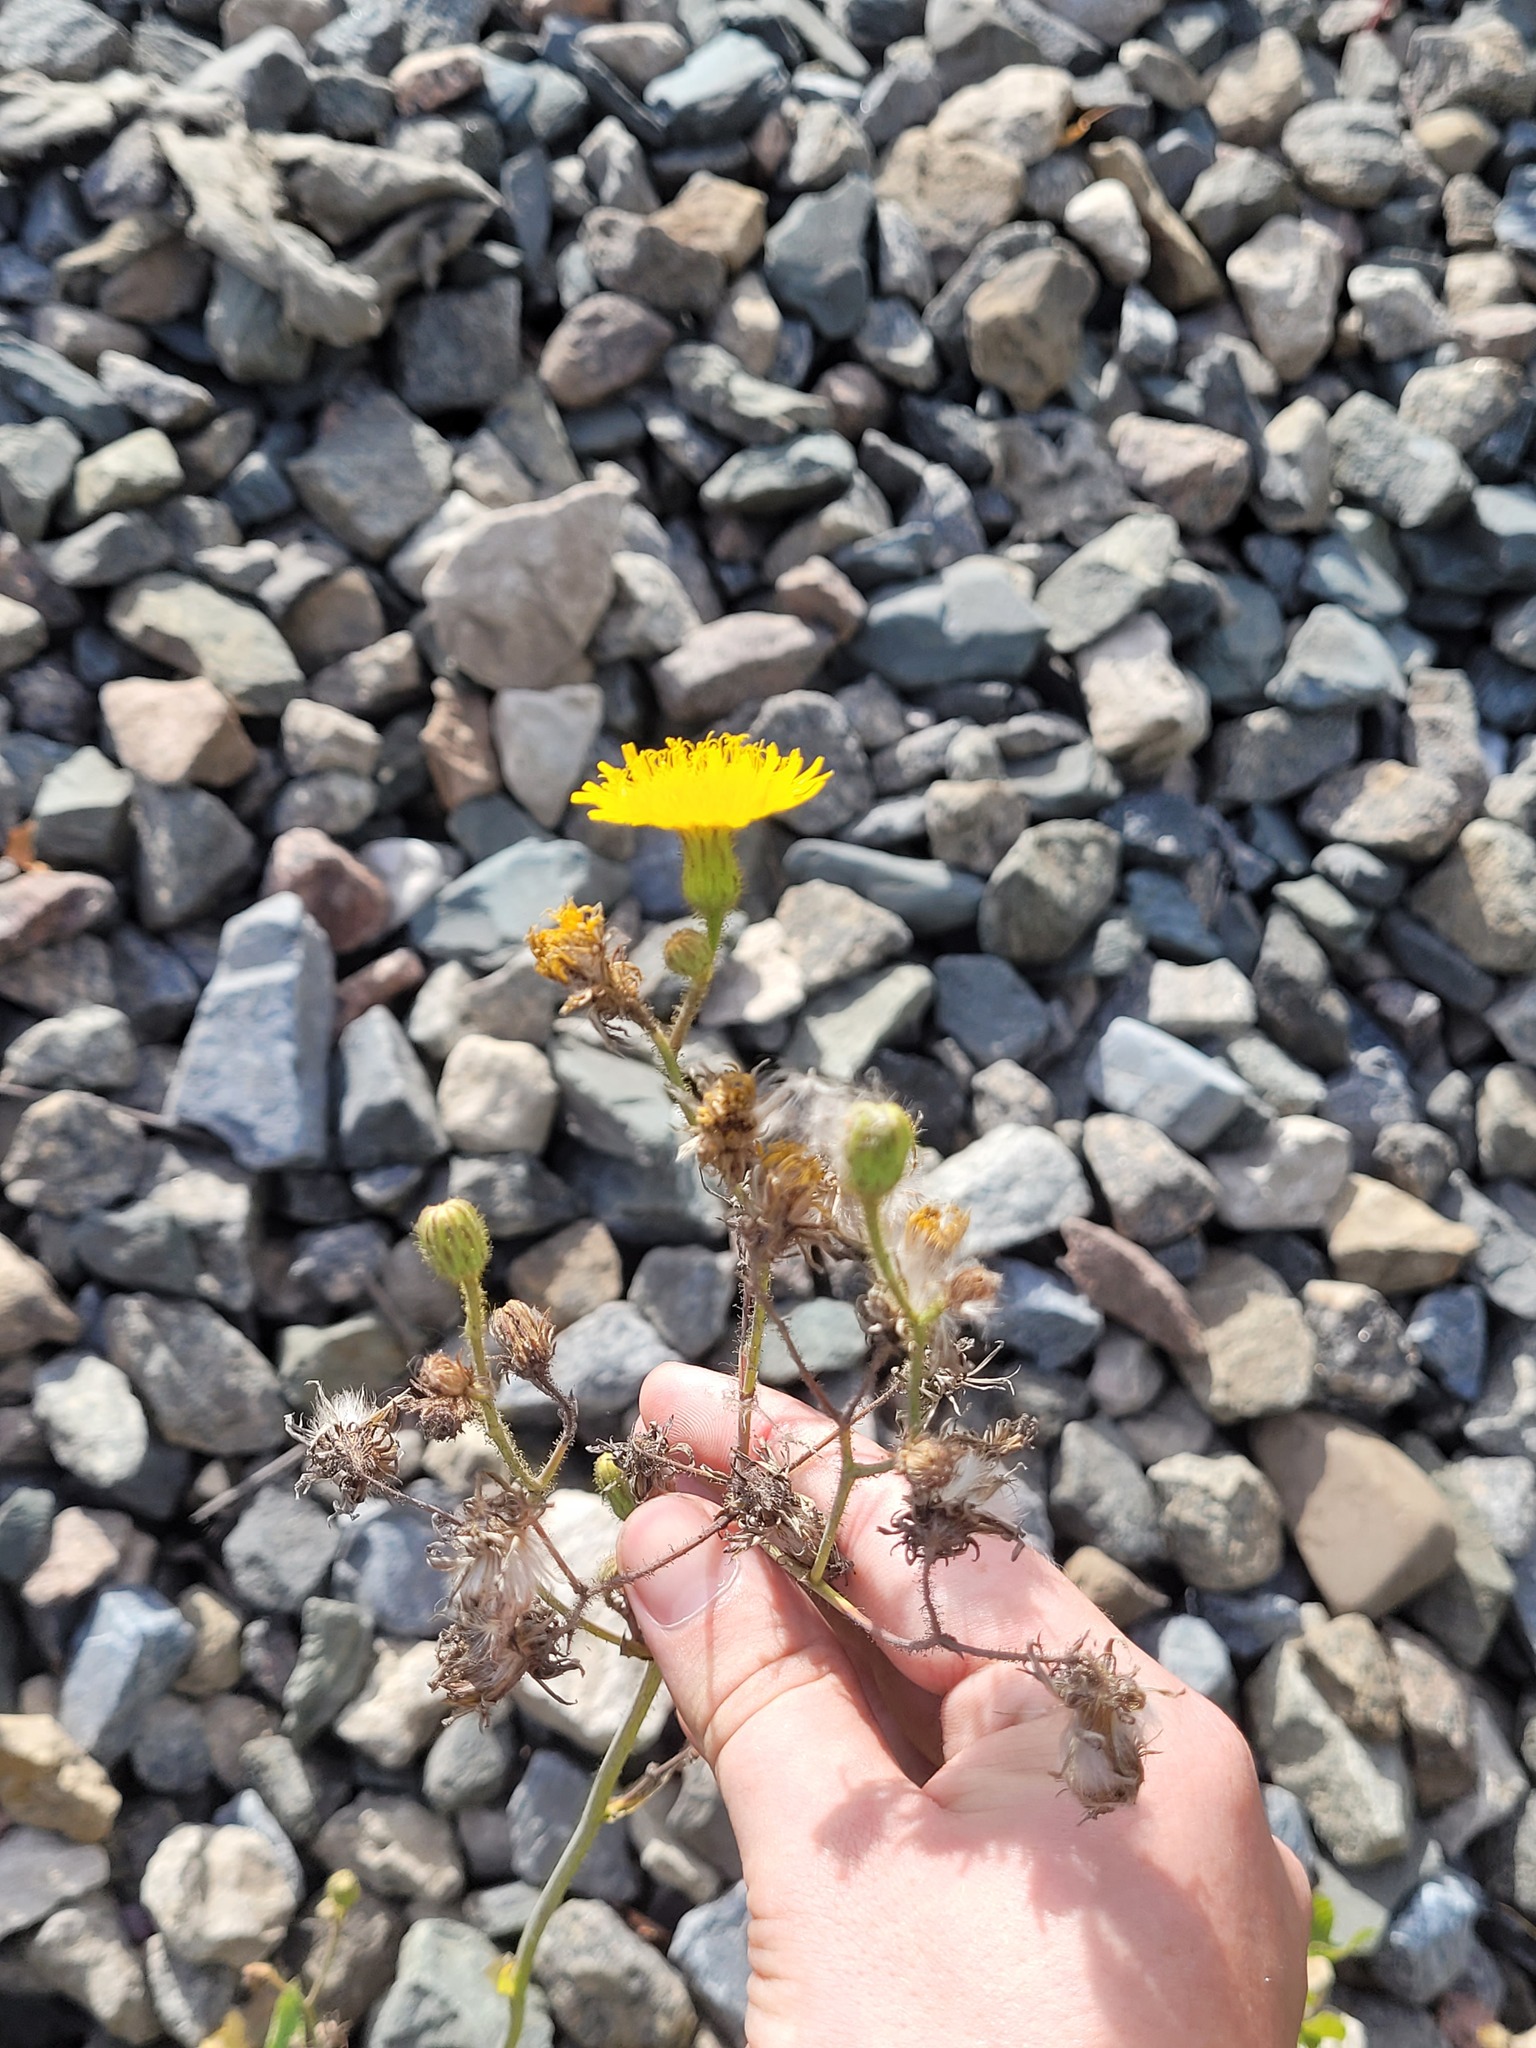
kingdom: Plantae
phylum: Tracheophyta
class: Magnoliopsida
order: Asterales
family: Asteraceae
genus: Sonchus
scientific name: Sonchus arvensis
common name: Perennial sow-thistle
